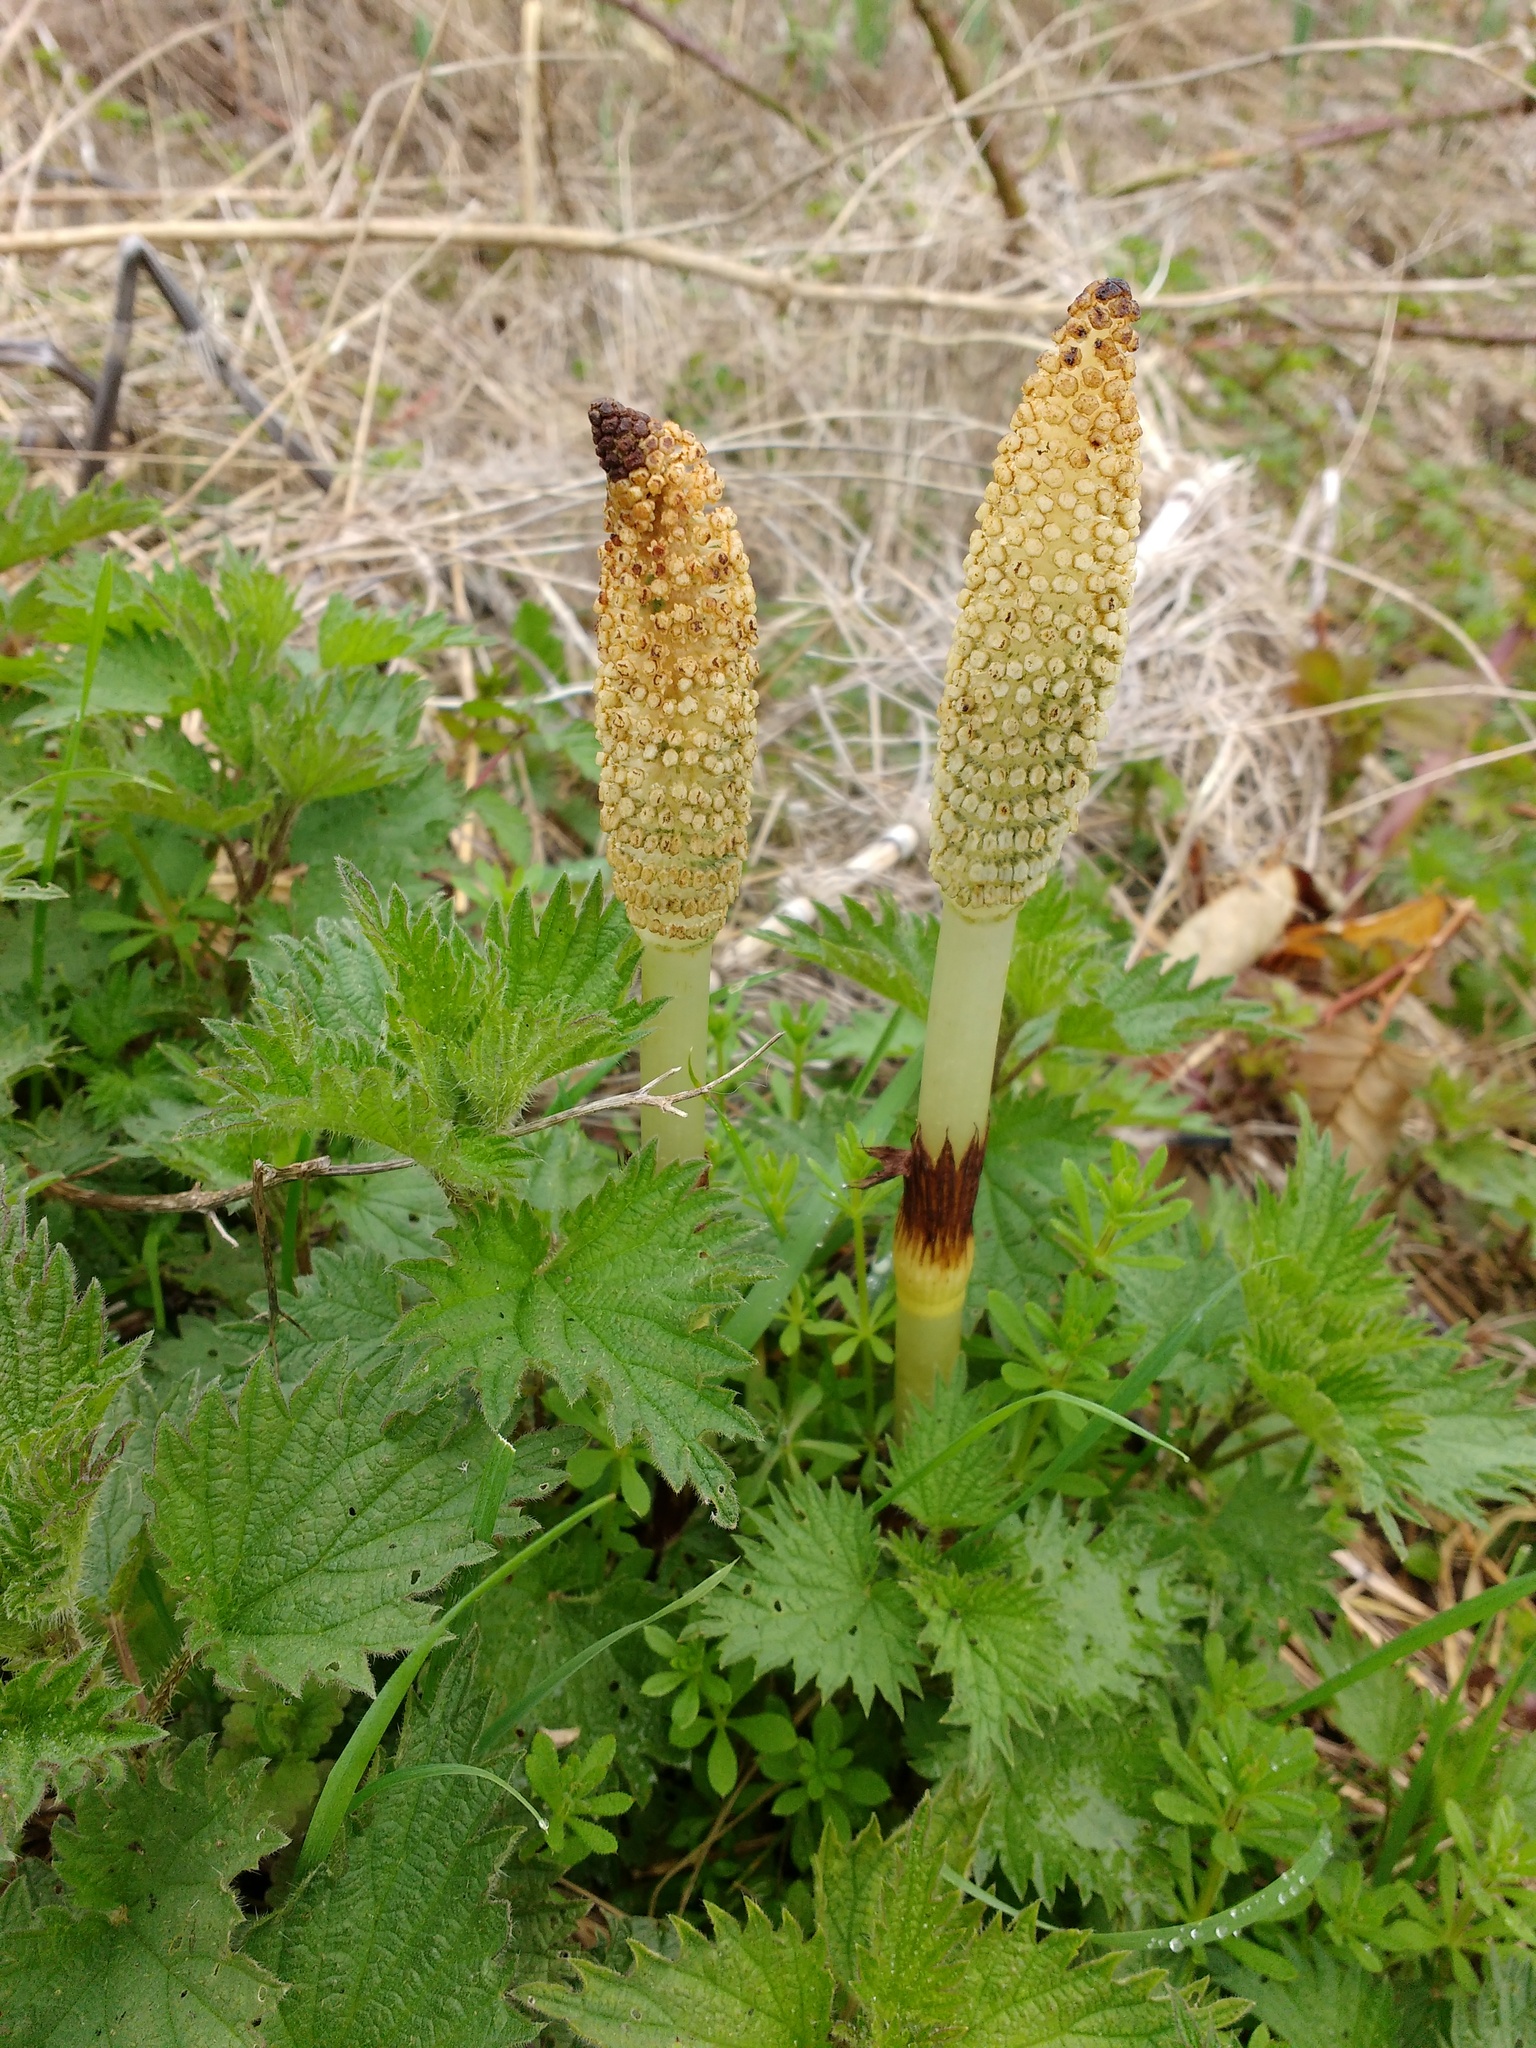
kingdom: Plantae
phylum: Tracheophyta
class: Polypodiopsida
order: Equisetales
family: Equisetaceae
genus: Equisetum
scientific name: Equisetum telmateia
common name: Great horsetail
